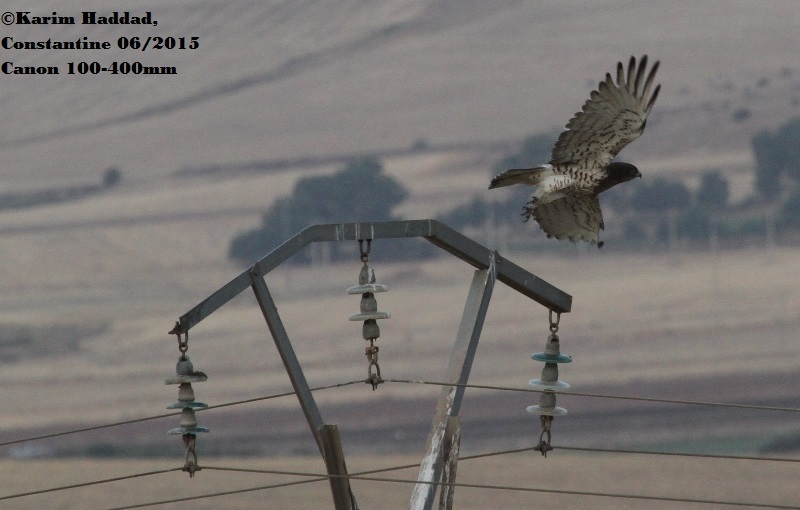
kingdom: Animalia
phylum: Chordata
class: Aves
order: Accipitriformes
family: Accipitridae
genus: Circaetus
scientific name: Circaetus gallicus
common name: Short-toed snake eagle
